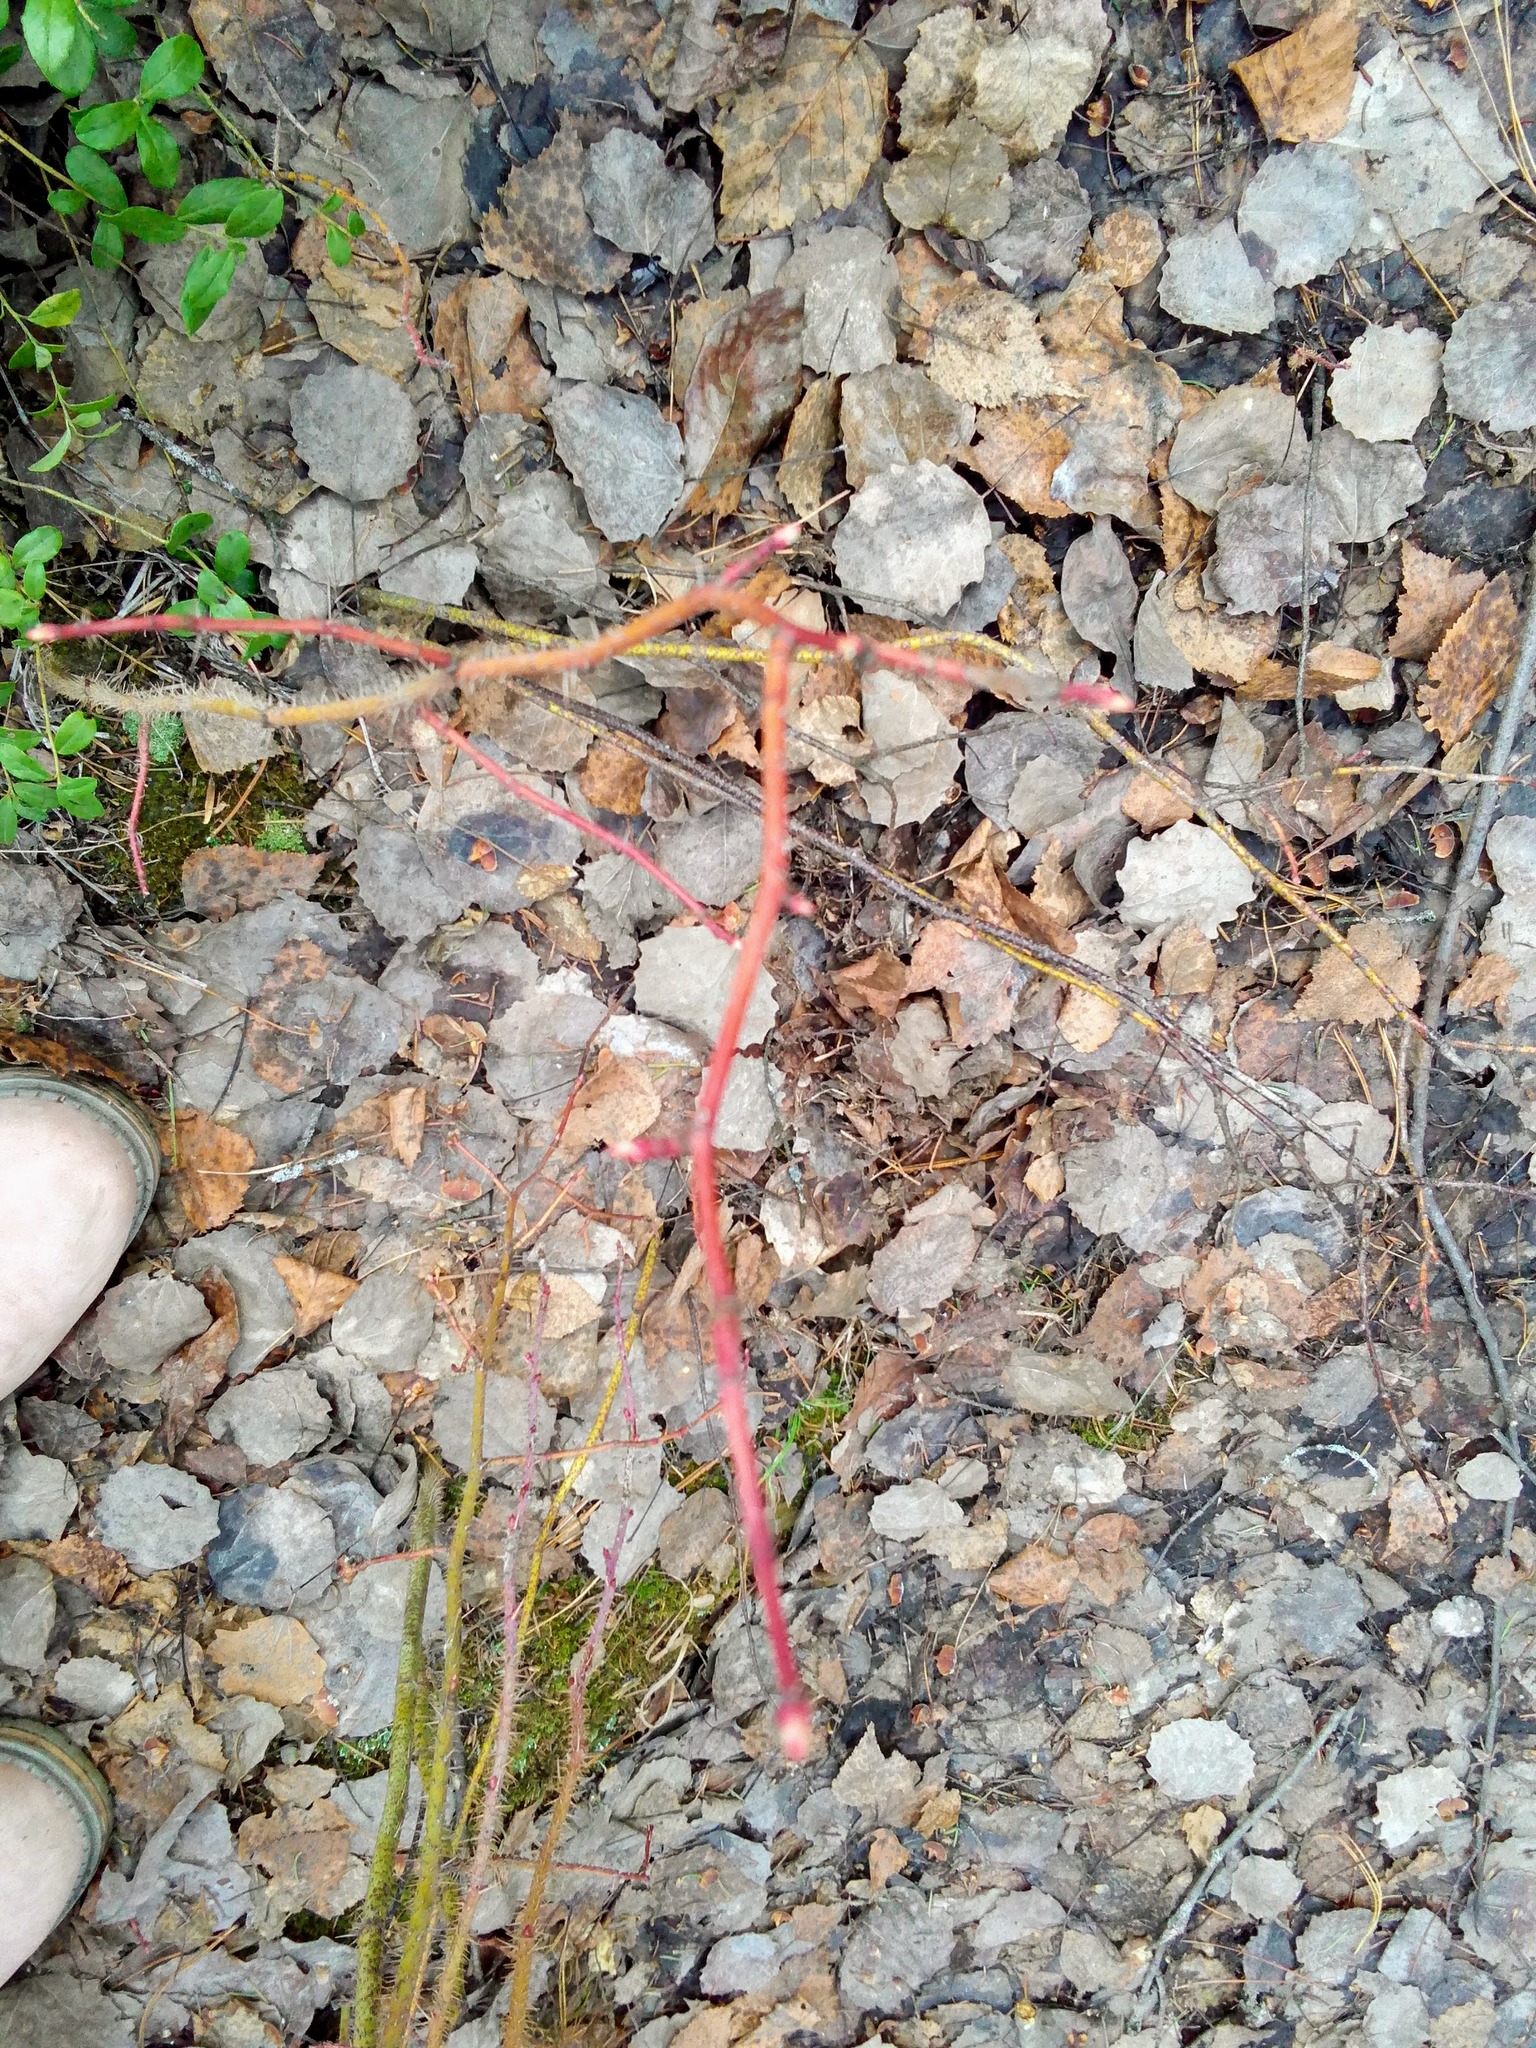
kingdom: Plantae
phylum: Tracheophyta
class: Magnoliopsida
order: Rosales
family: Rosaceae
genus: Rosa
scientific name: Rosa acicularis
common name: Prickly rose
